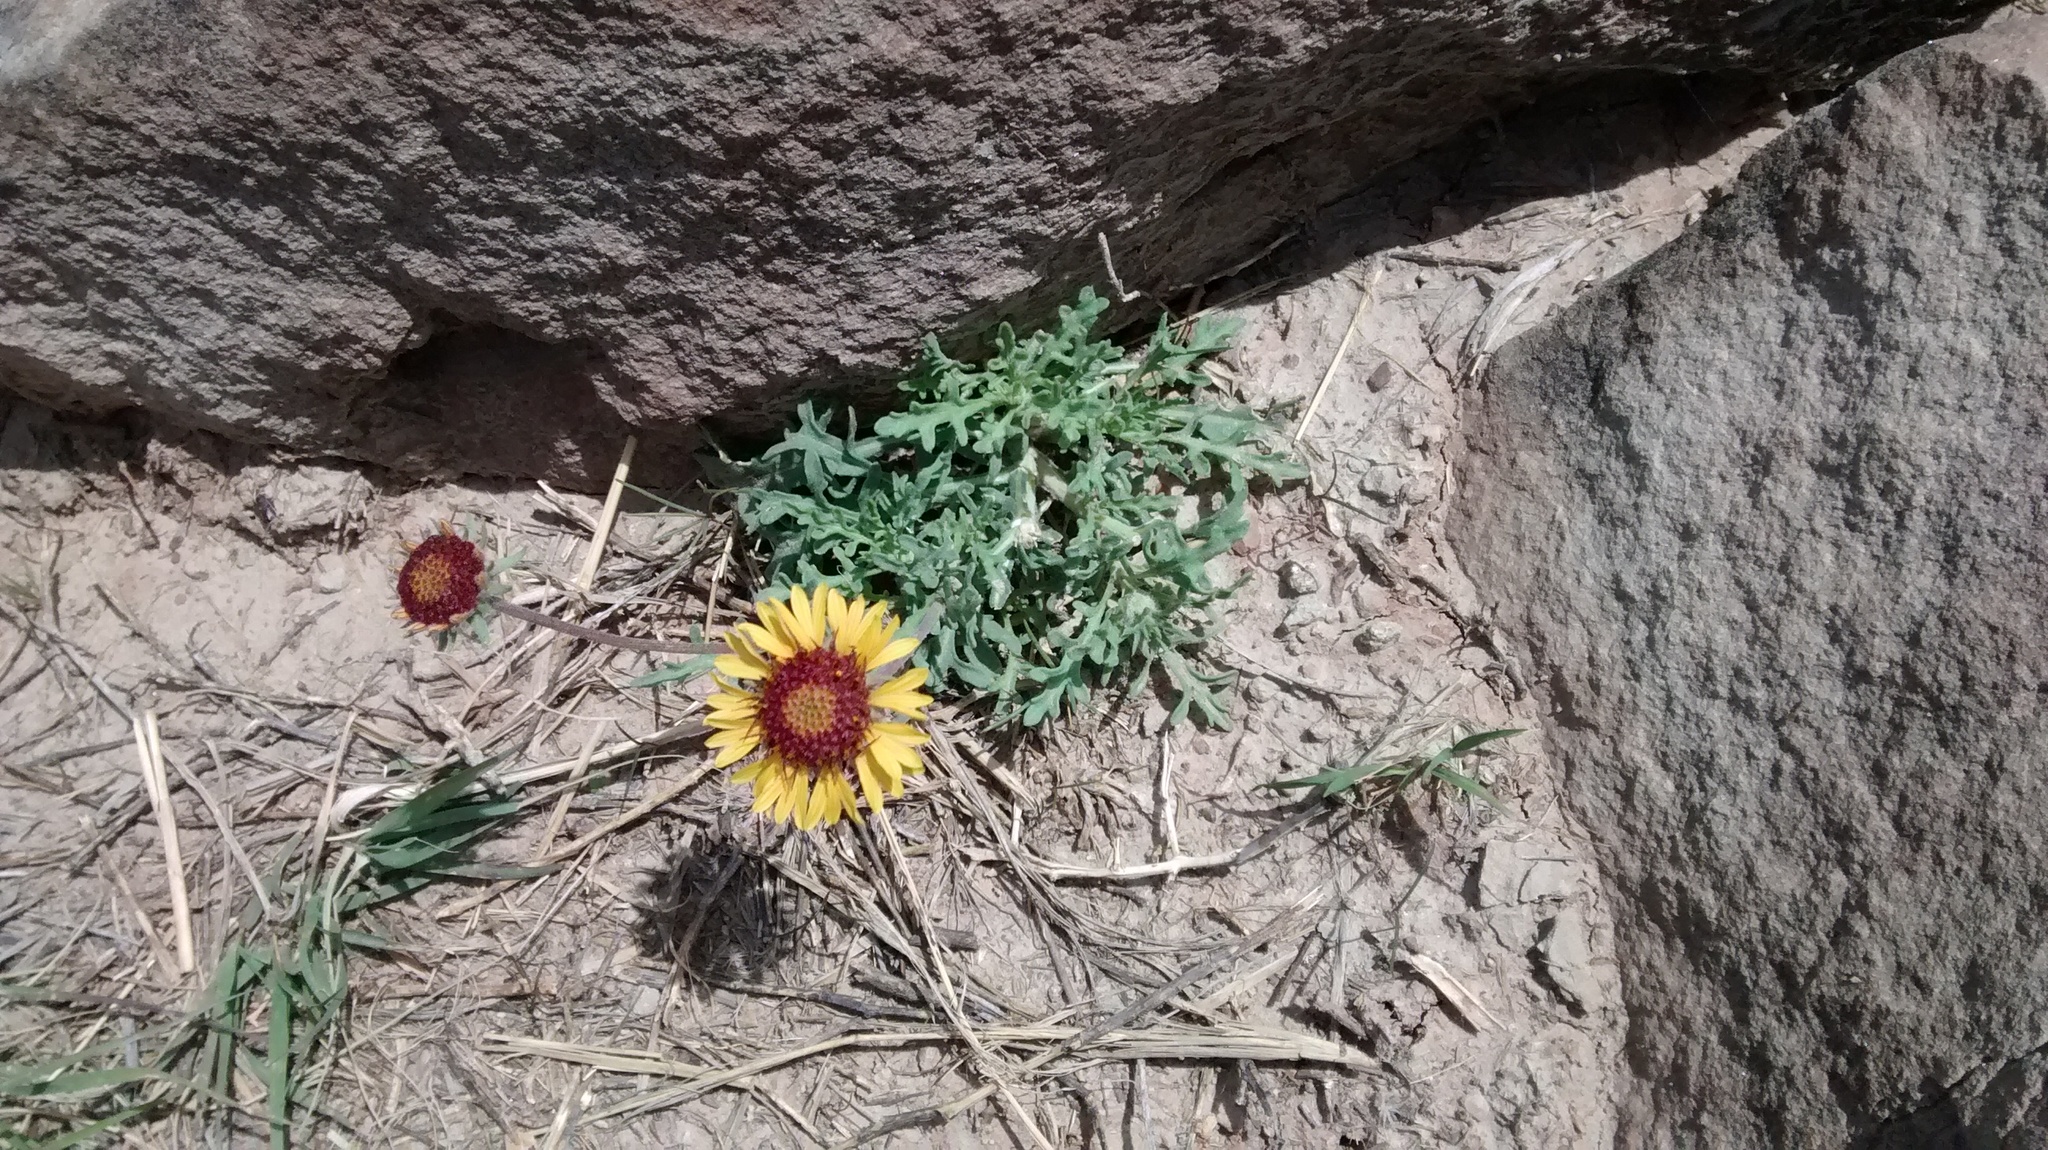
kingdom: Plantae
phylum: Tracheophyta
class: Magnoliopsida
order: Asterales
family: Asteraceae
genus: Gaillardia
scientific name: Gaillardia pinnatifida
